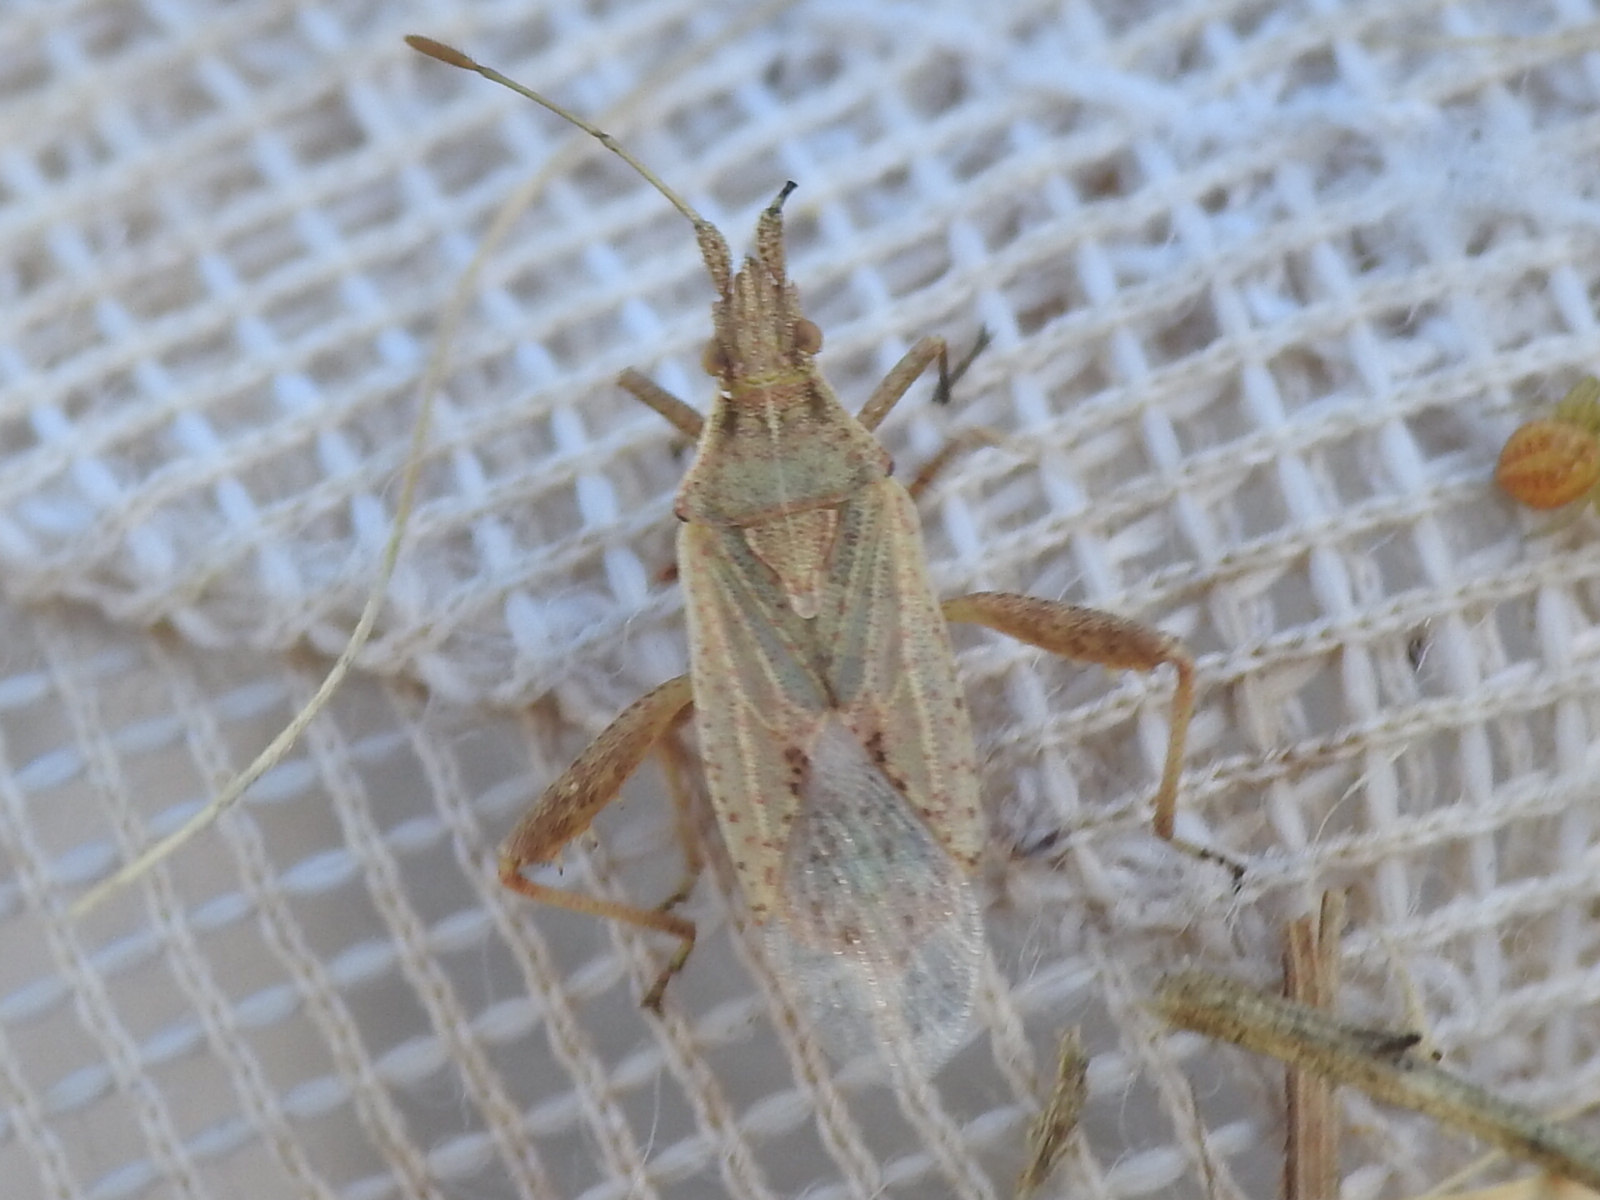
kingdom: Animalia
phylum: Arthropoda
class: Insecta
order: Hemiptera
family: Rhopalidae
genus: Harmostes
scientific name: Harmostes reflexulus
